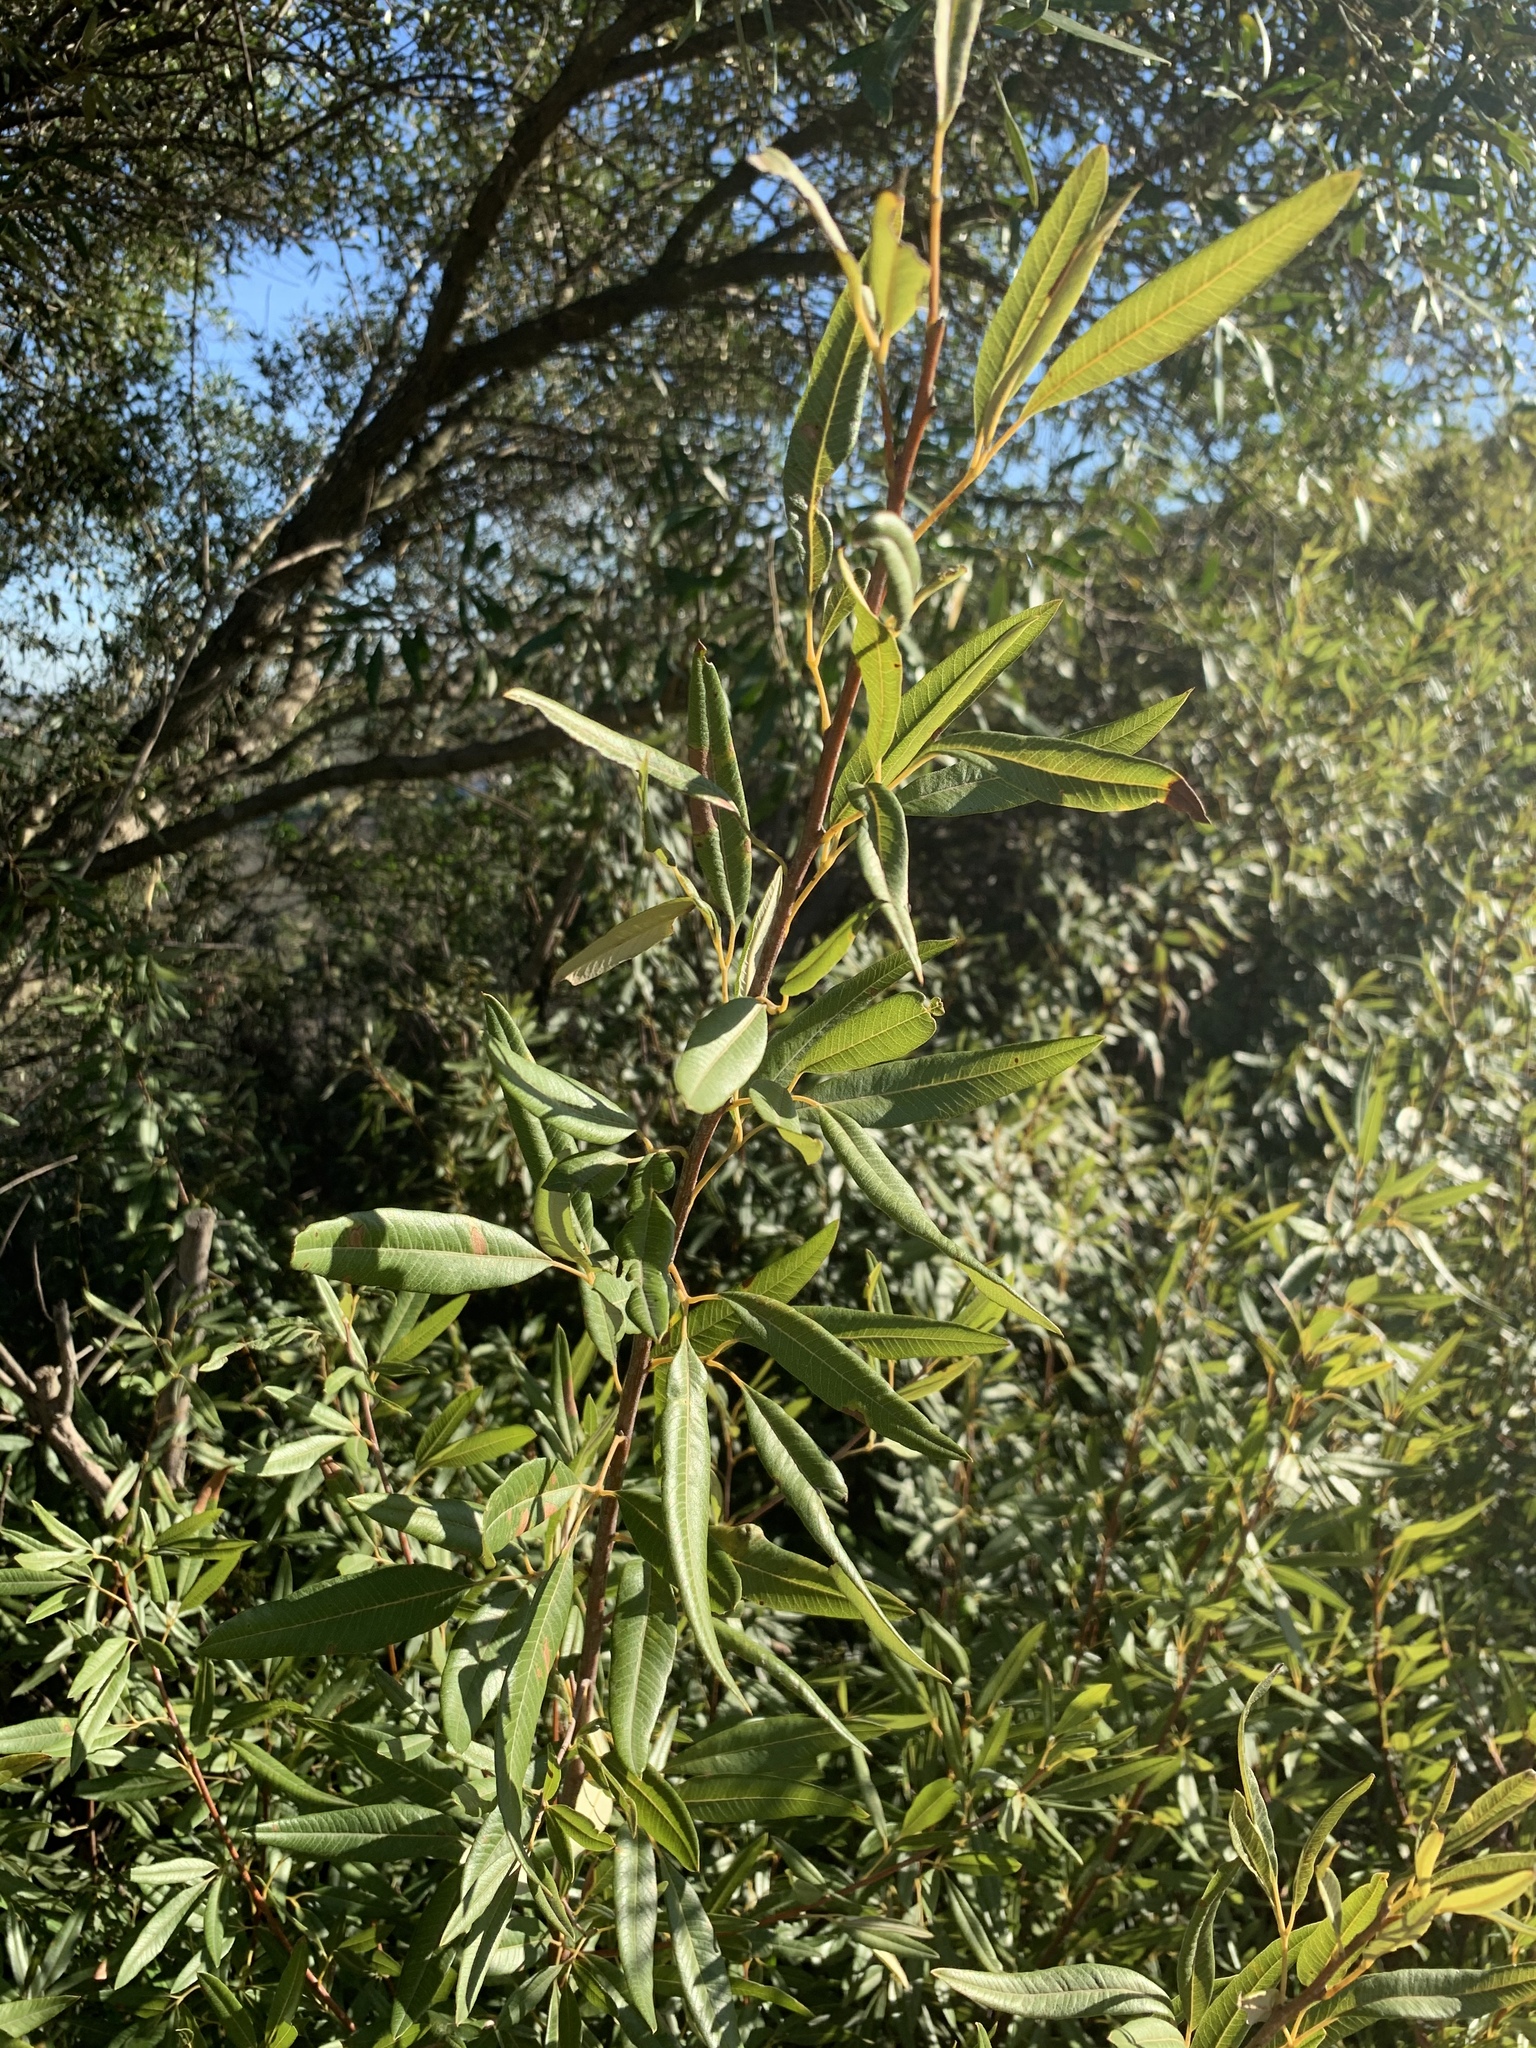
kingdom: Plantae
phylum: Tracheophyta
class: Magnoliopsida
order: Sapindales
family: Anacardiaceae
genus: Searsia
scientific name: Searsia angustifolia
